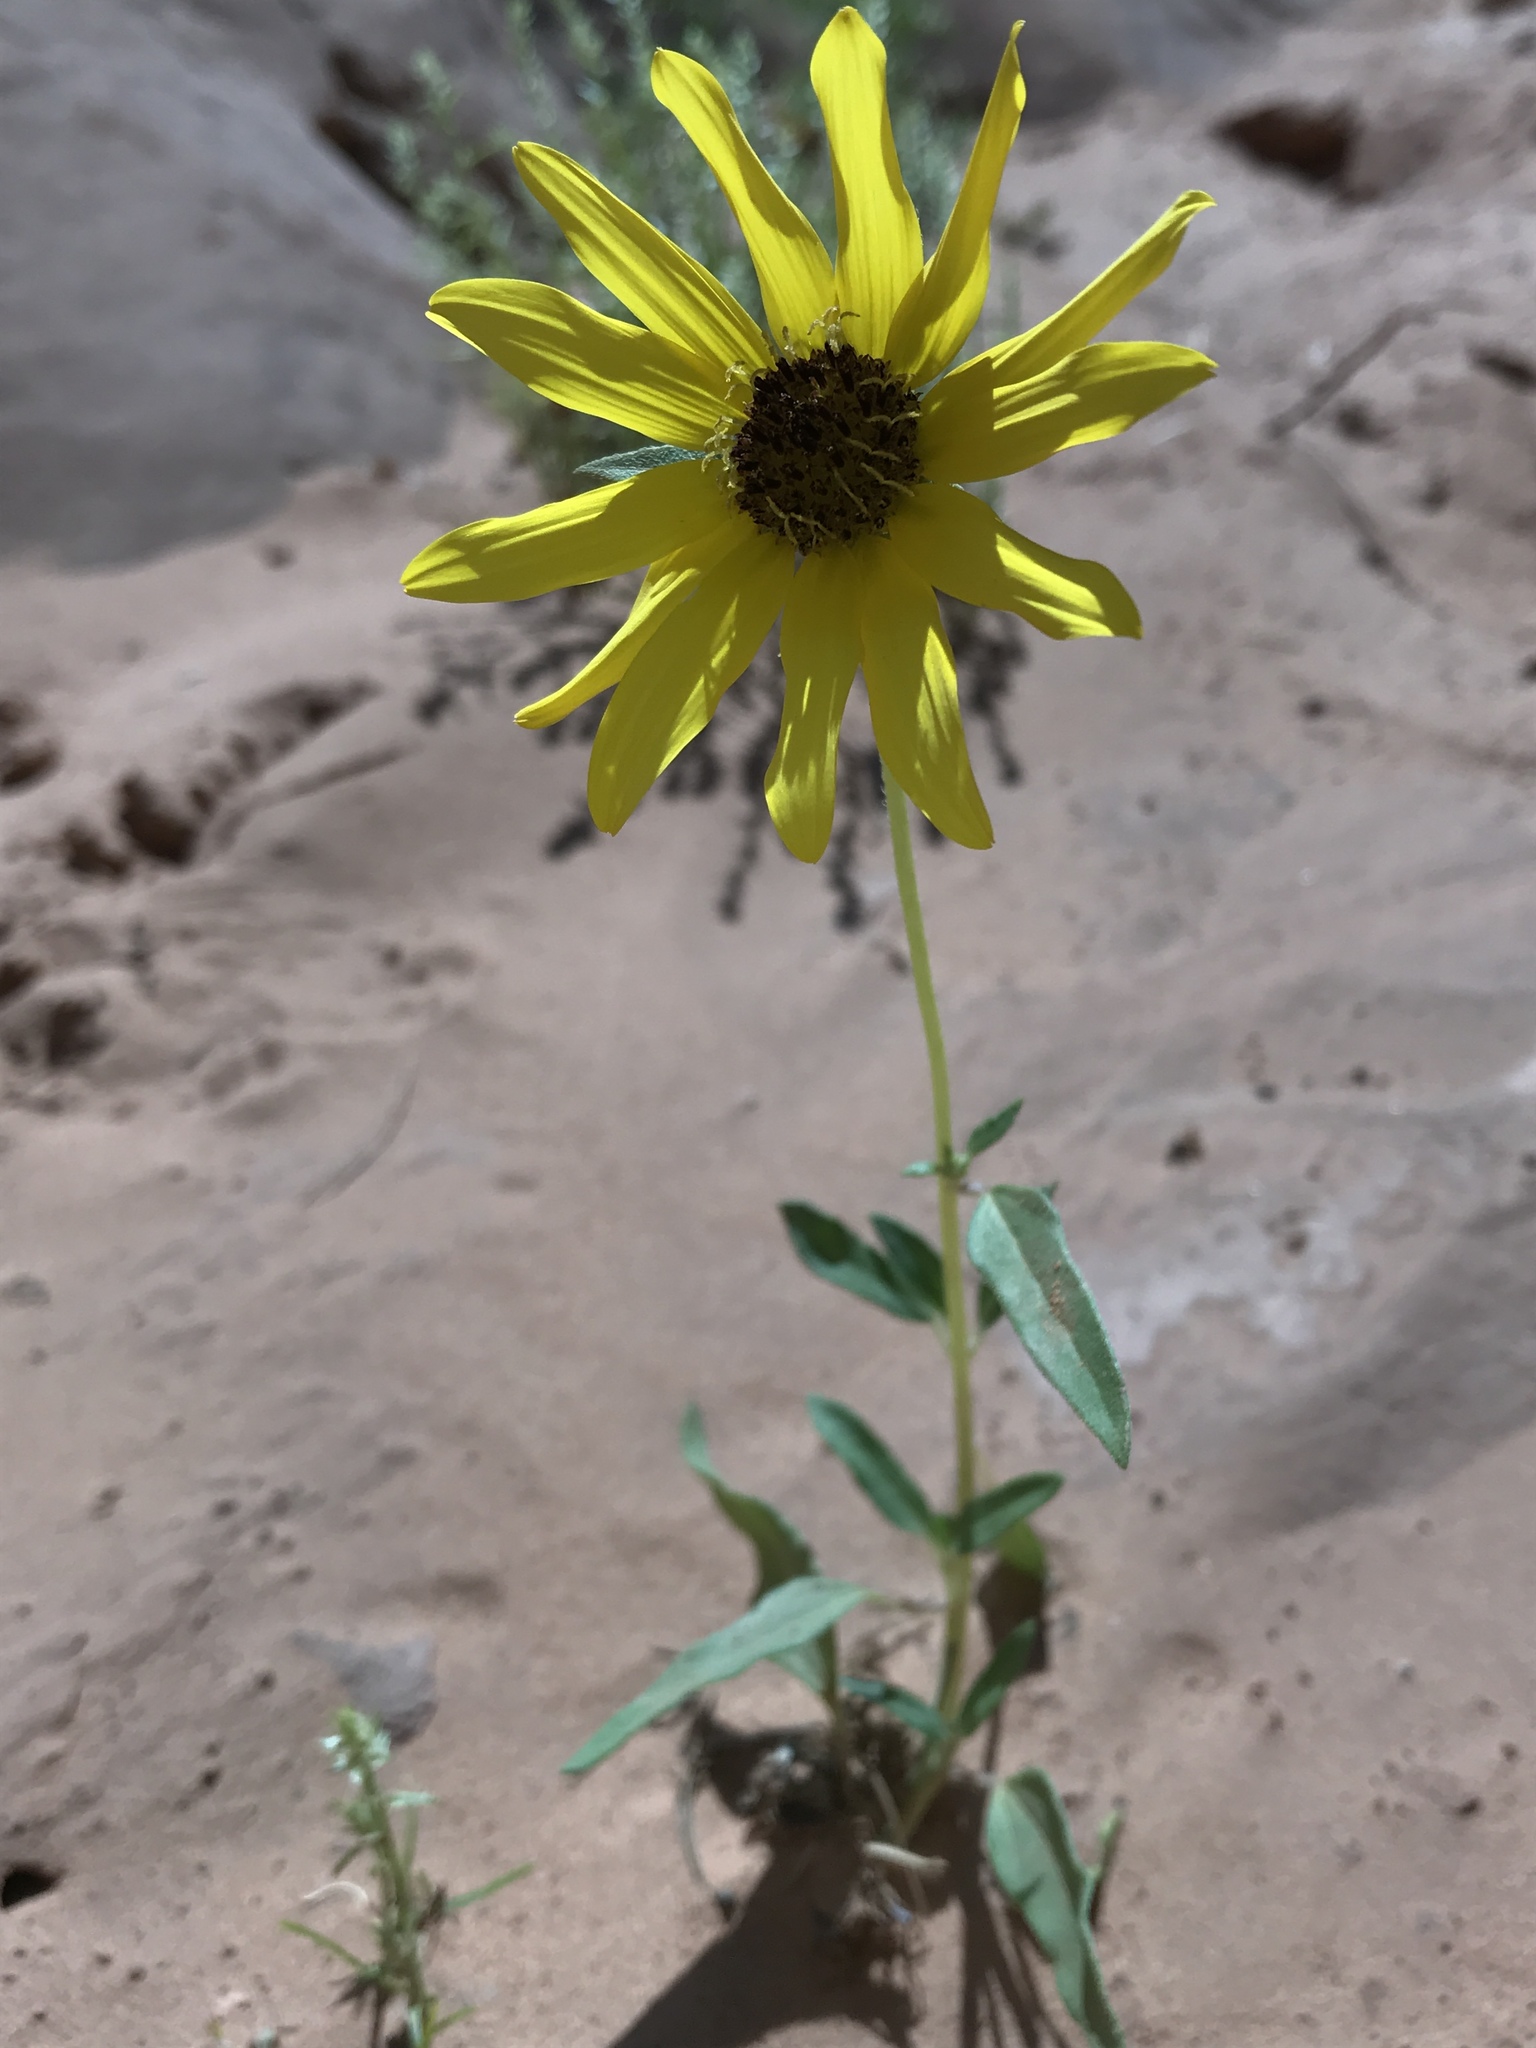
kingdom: Plantae
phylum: Tracheophyta
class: Magnoliopsida
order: Asterales
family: Asteraceae
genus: Helianthus
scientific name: Helianthus petiolaris
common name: Lesser sunflower
